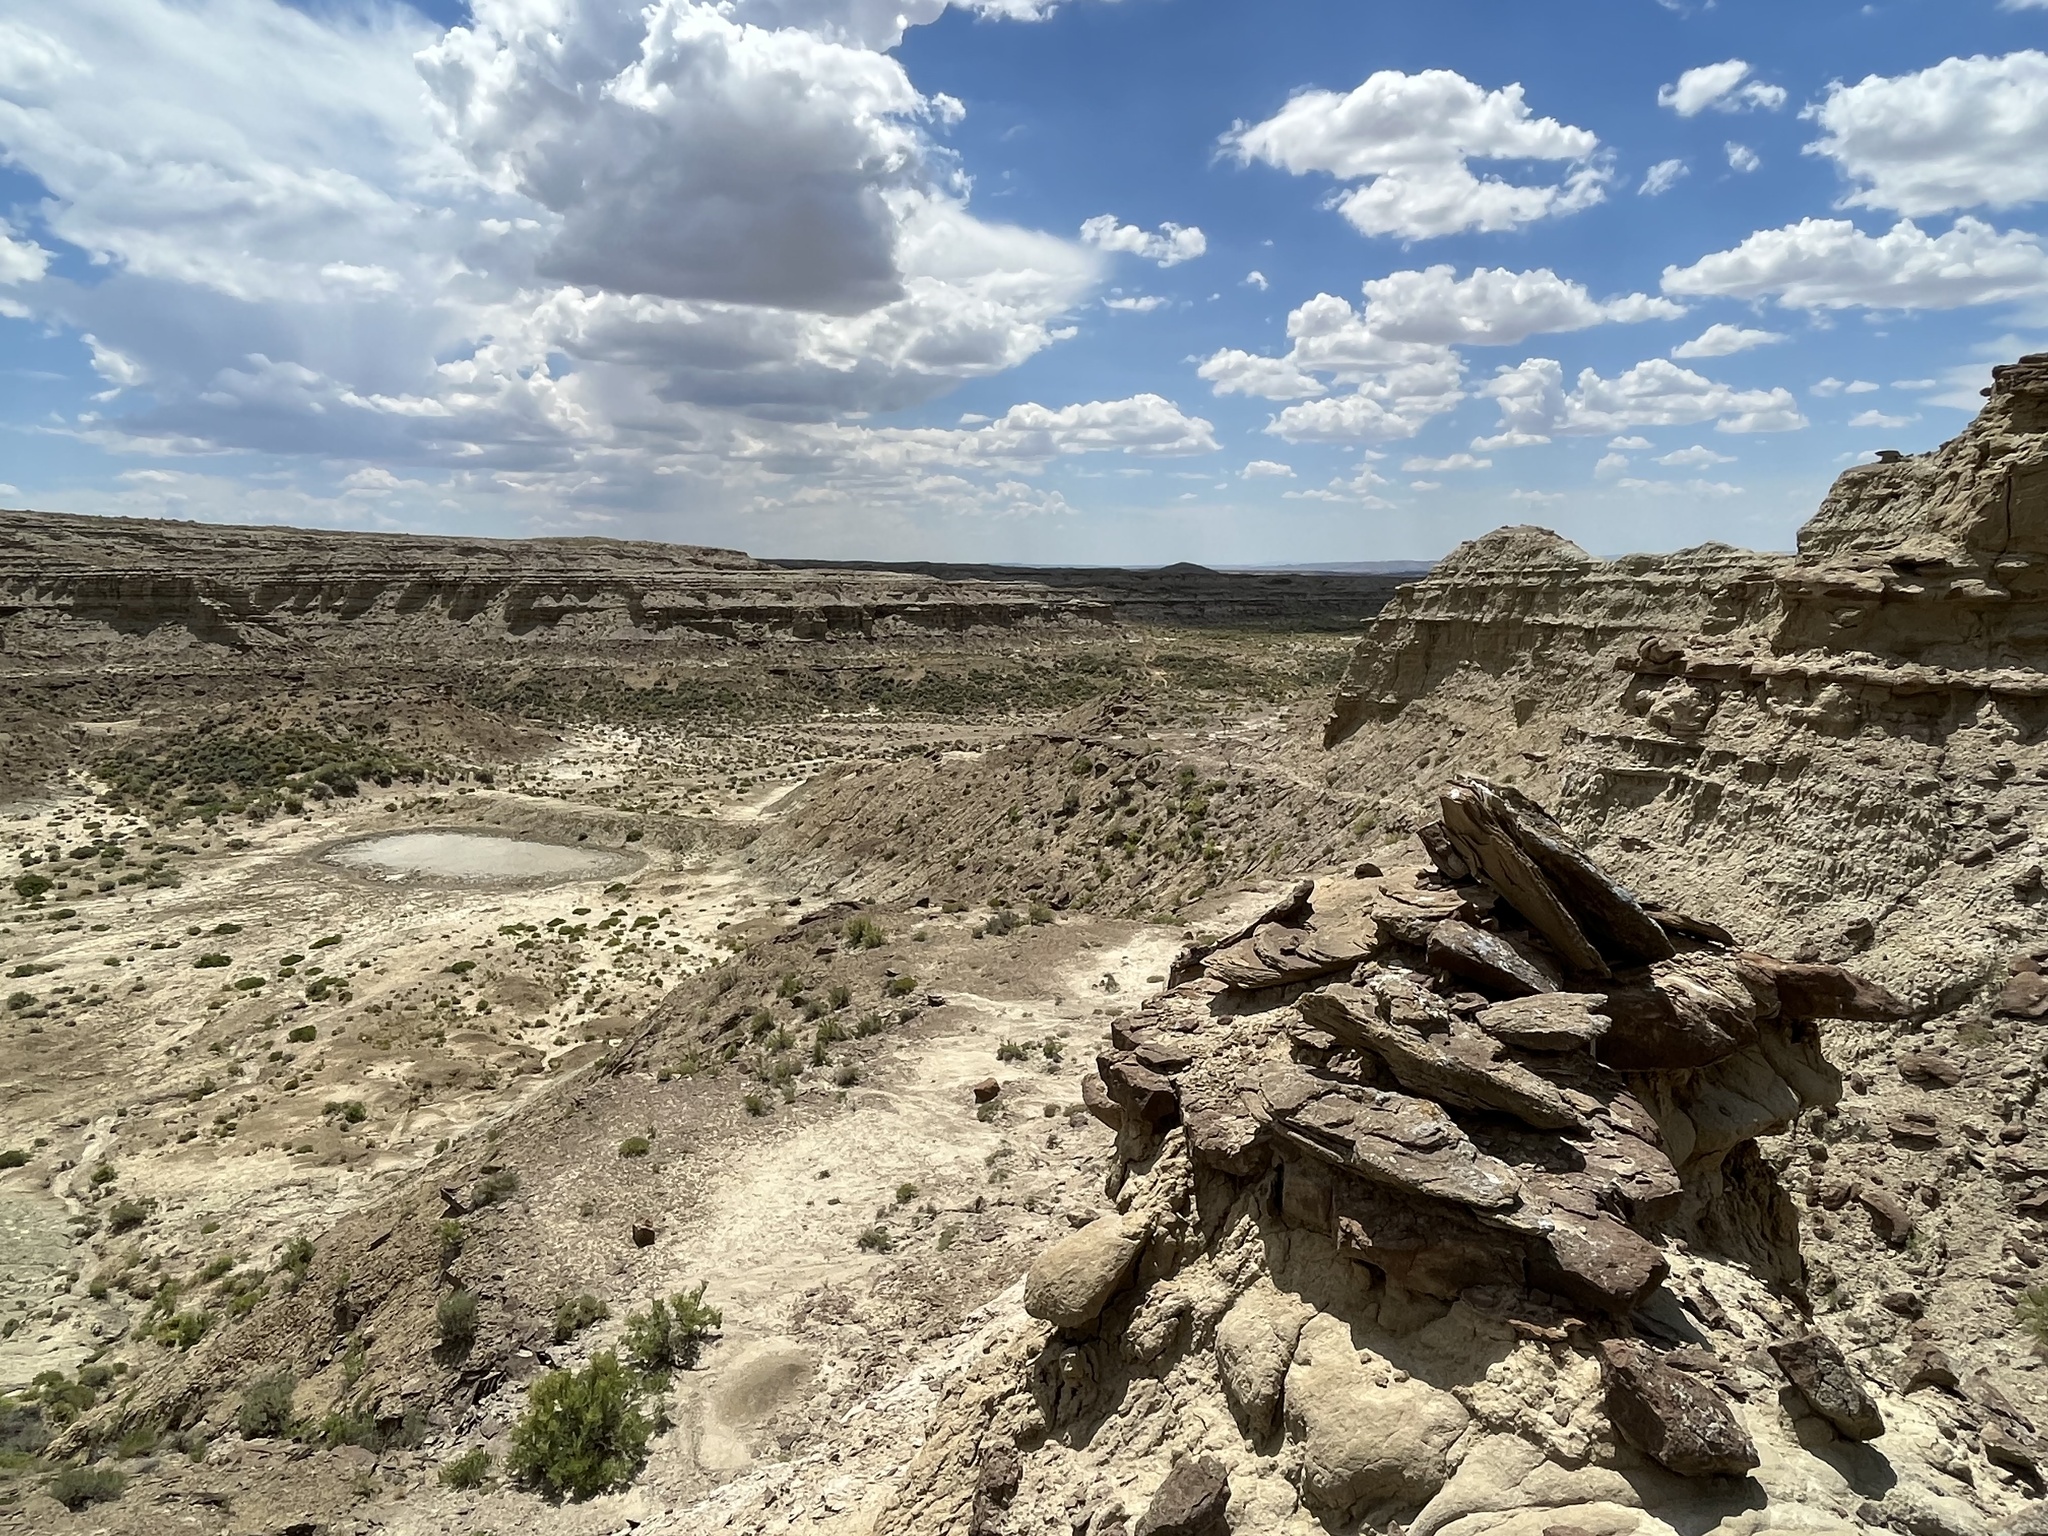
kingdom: Animalia
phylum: Chordata
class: Mammalia
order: Artiodactyla
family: Antilocapridae
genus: Antilocapra
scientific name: Antilocapra americana
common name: Pronghorn
